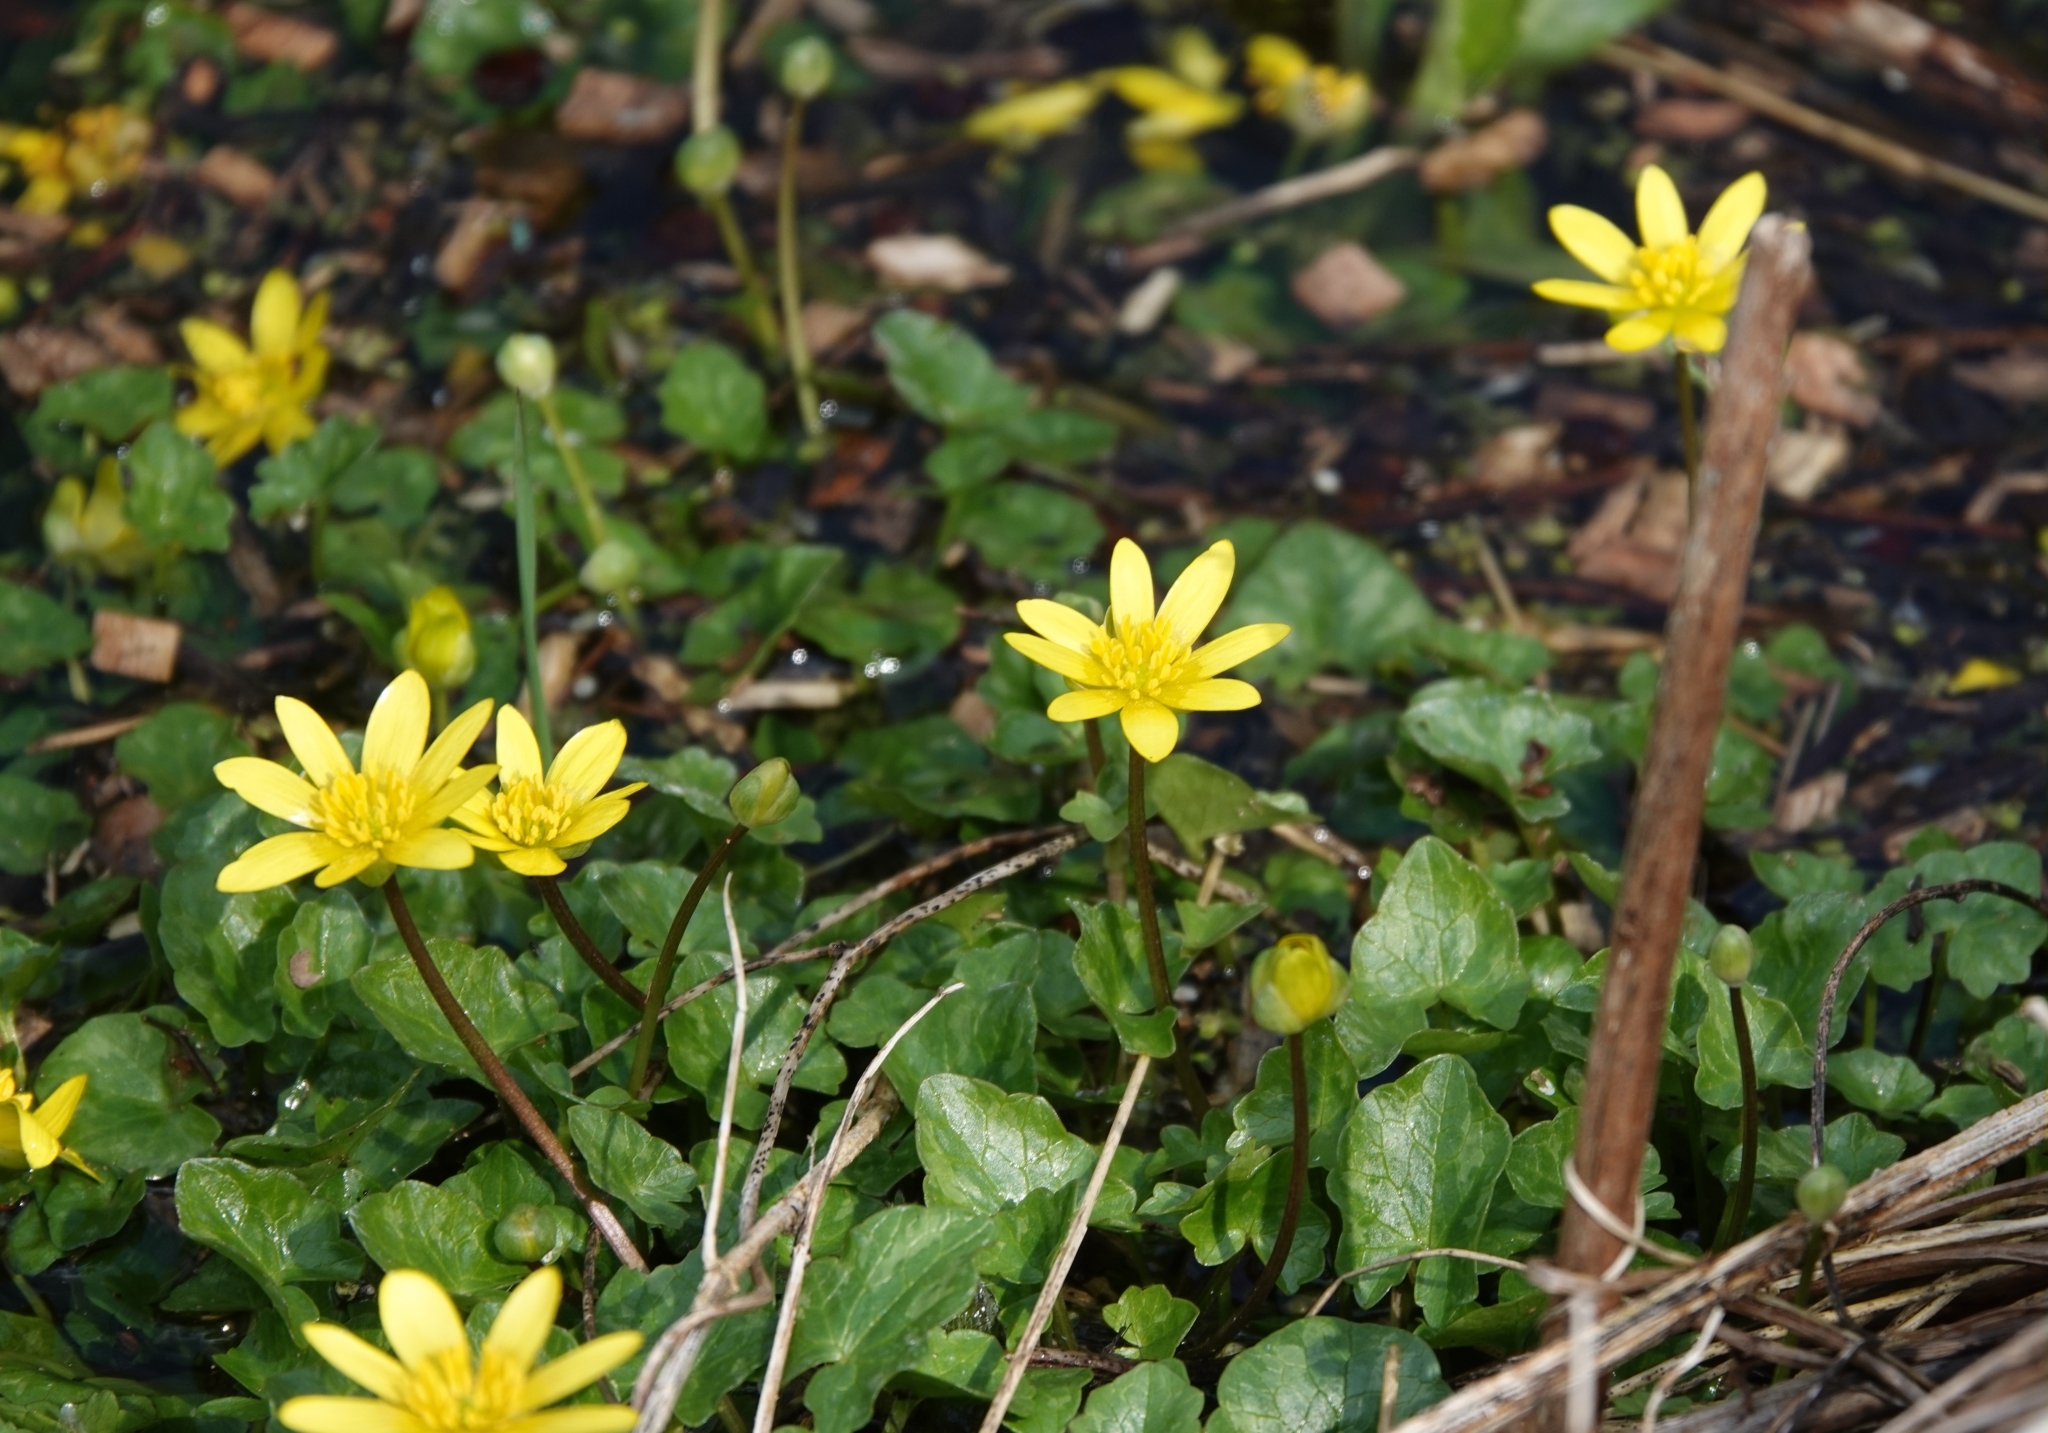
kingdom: Plantae
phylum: Tracheophyta
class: Magnoliopsida
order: Ranunculales
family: Ranunculaceae
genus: Ficaria
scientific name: Ficaria verna
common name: Lesser celandine
